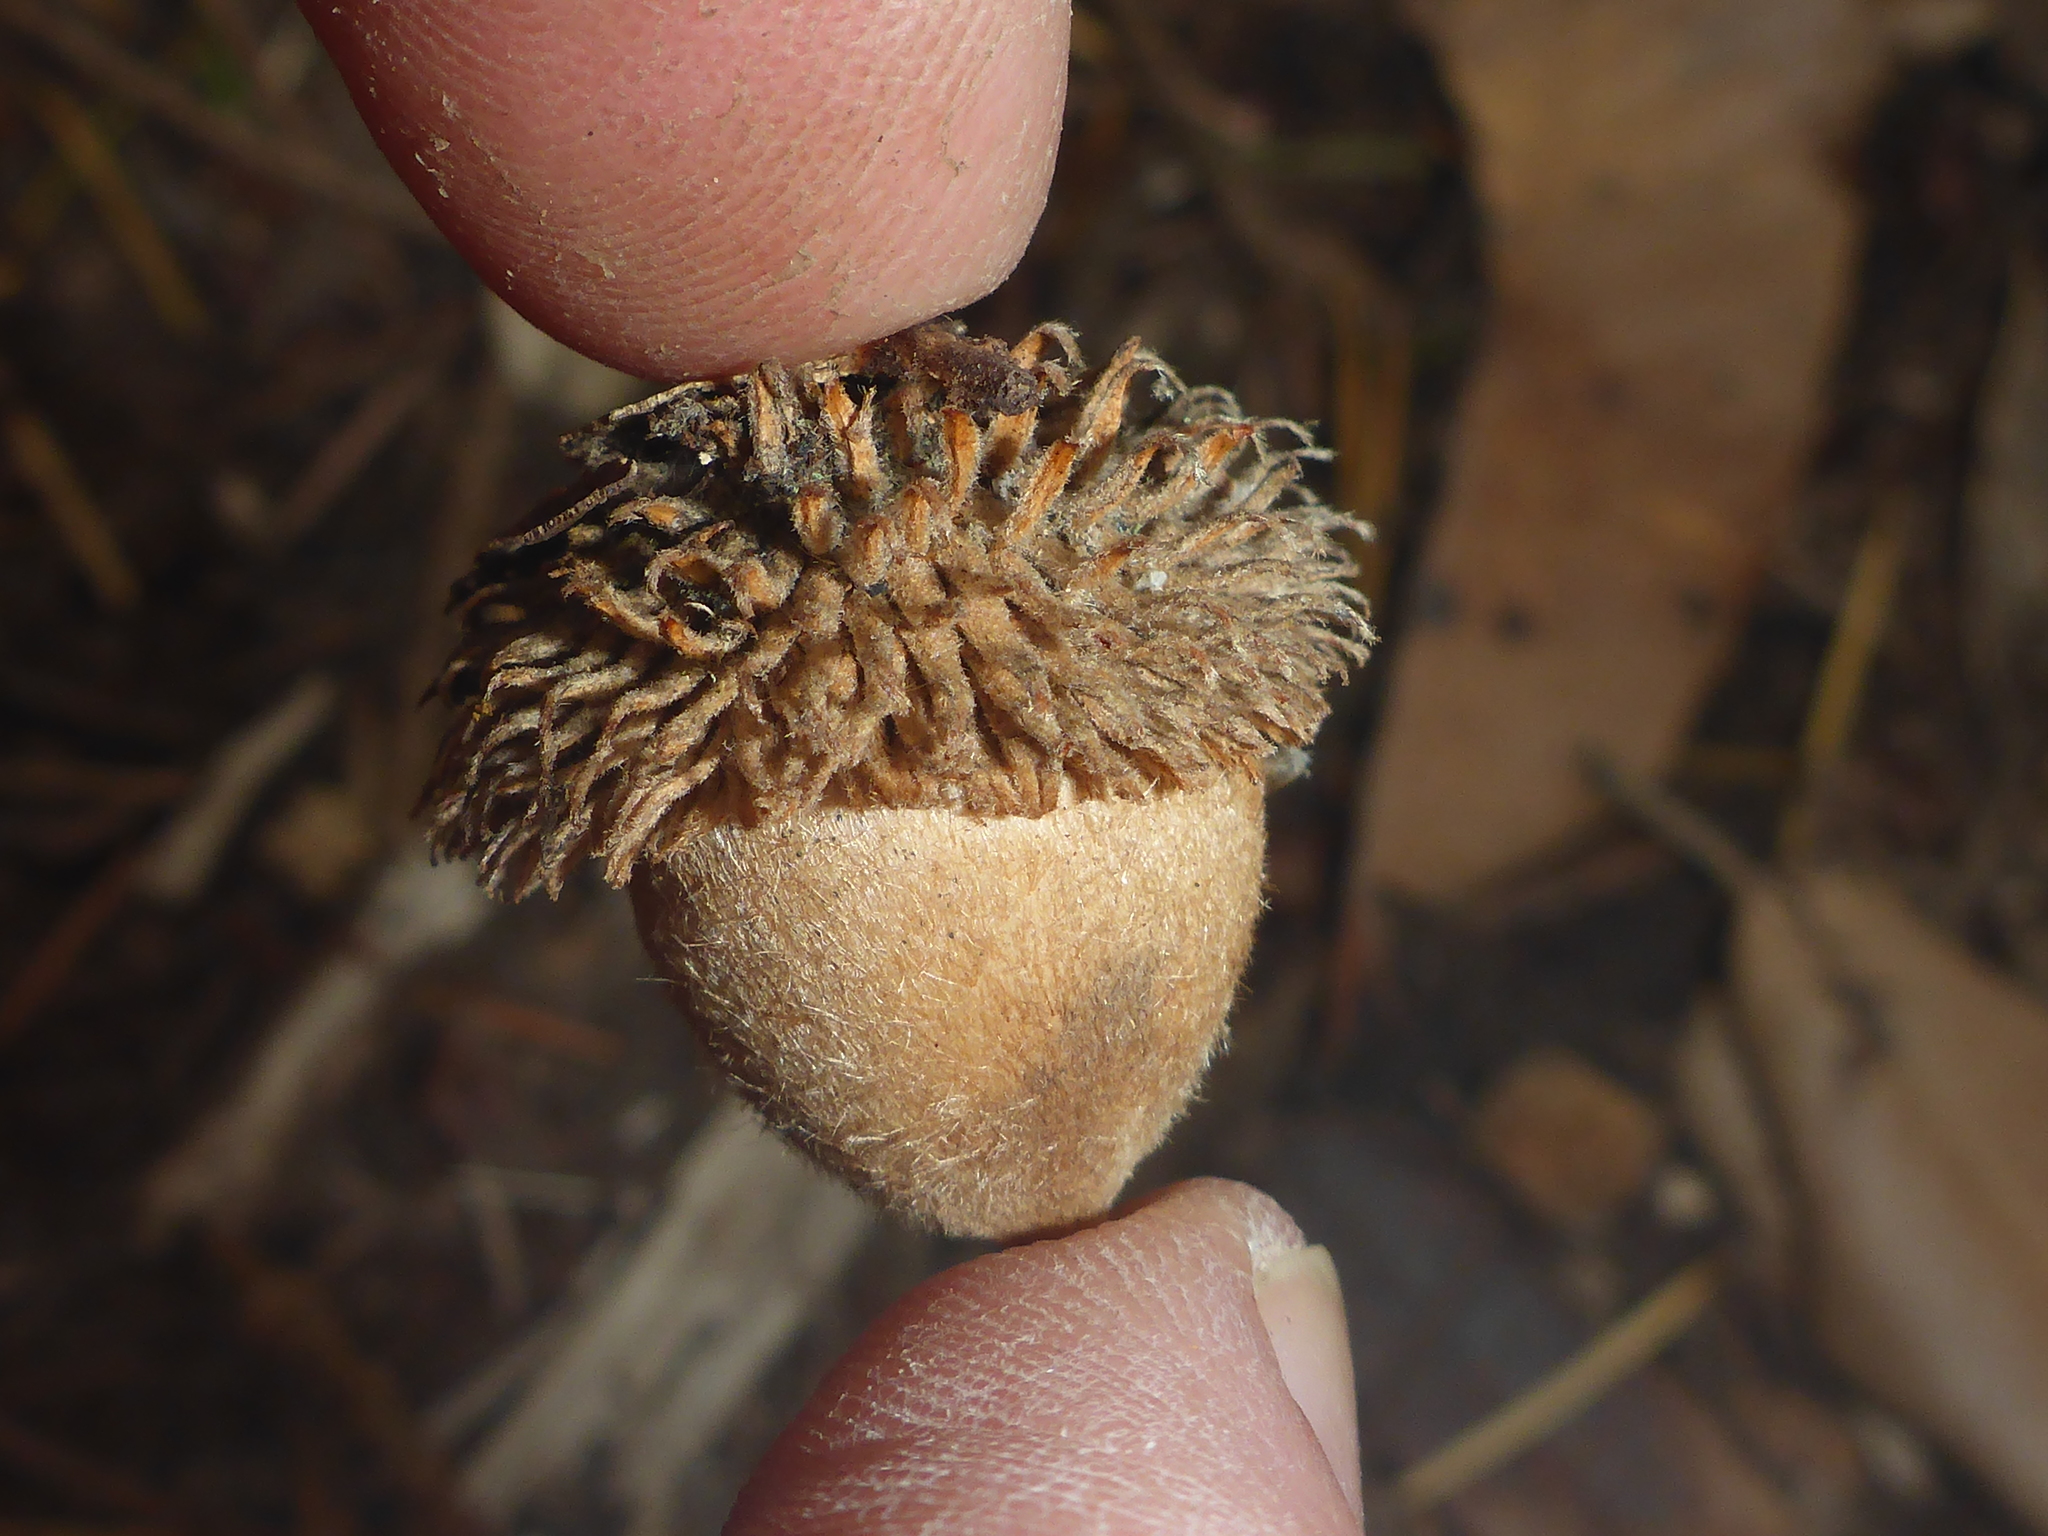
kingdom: Plantae
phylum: Tracheophyta
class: Magnoliopsida
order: Fagales
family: Fagaceae
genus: Notholithocarpus
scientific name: Notholithocarpus densiflorus
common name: Tan bark oak
